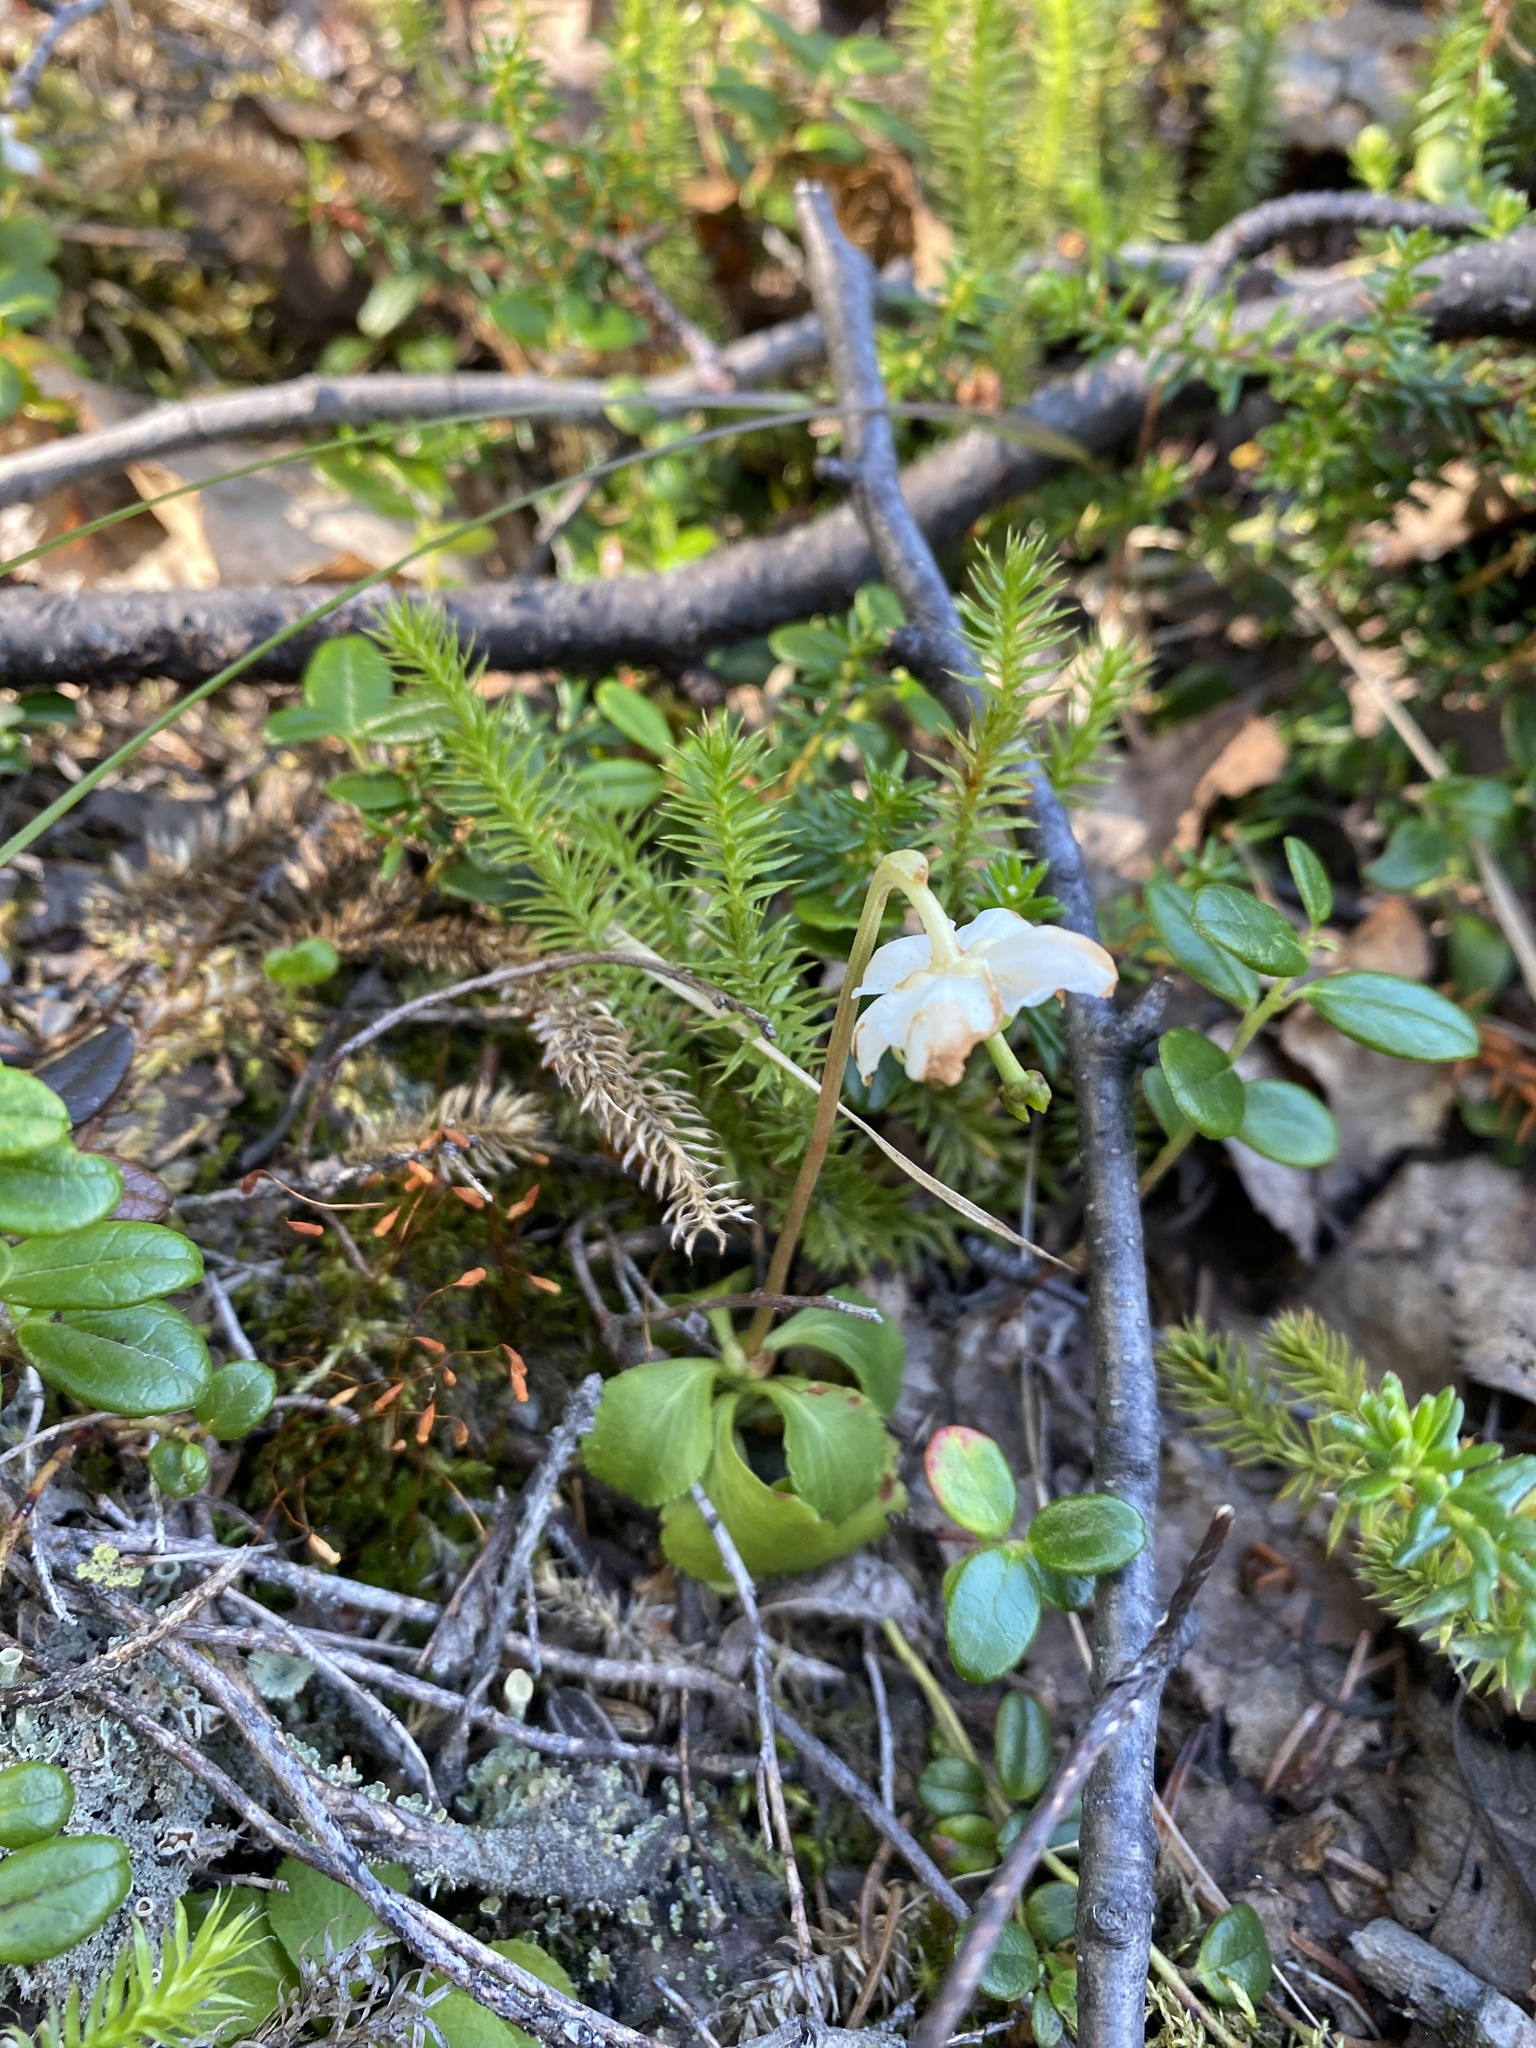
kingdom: Plantae
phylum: Tracheophyta
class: Magnoliopsida
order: Ericales
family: Ericaceae
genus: Moneses
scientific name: Moneses uniflora
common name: One-flowered wintergreen
